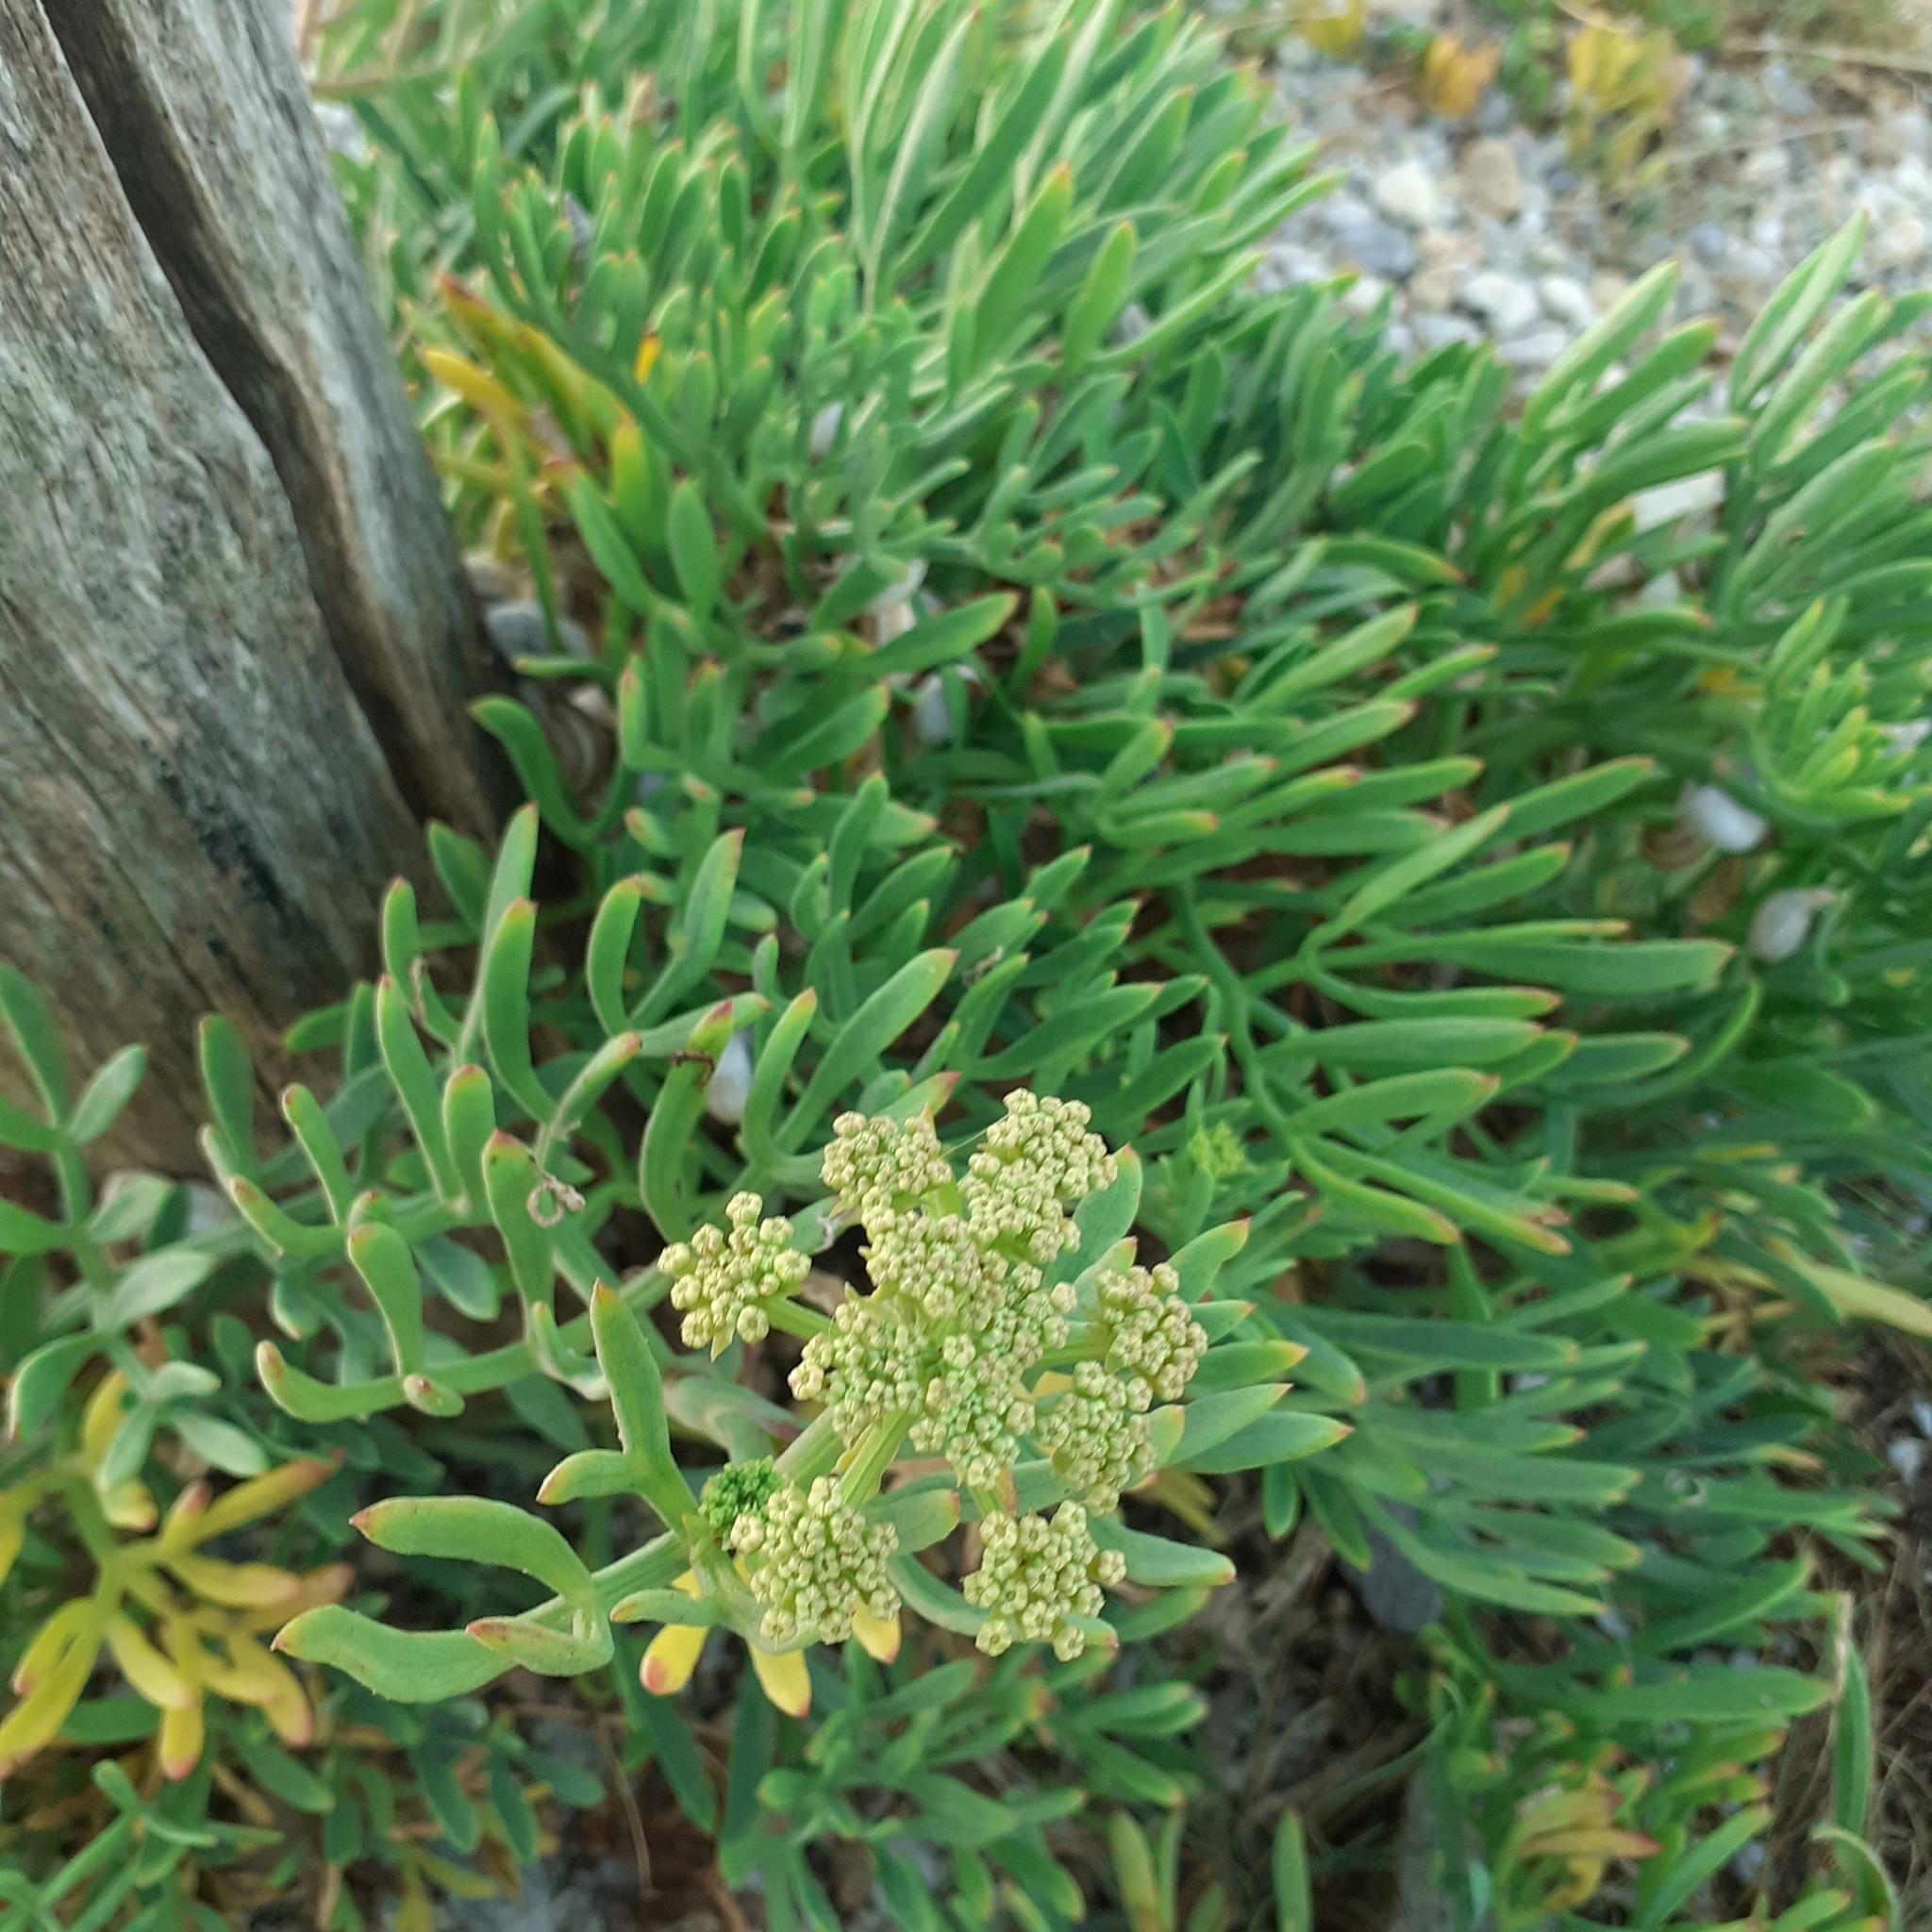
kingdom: Plantae
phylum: Tracheophyta
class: Magnoliopsida
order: Apiales
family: Apiaceae
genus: Crithmum
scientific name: Crithmum maritimum
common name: Rock samphire
